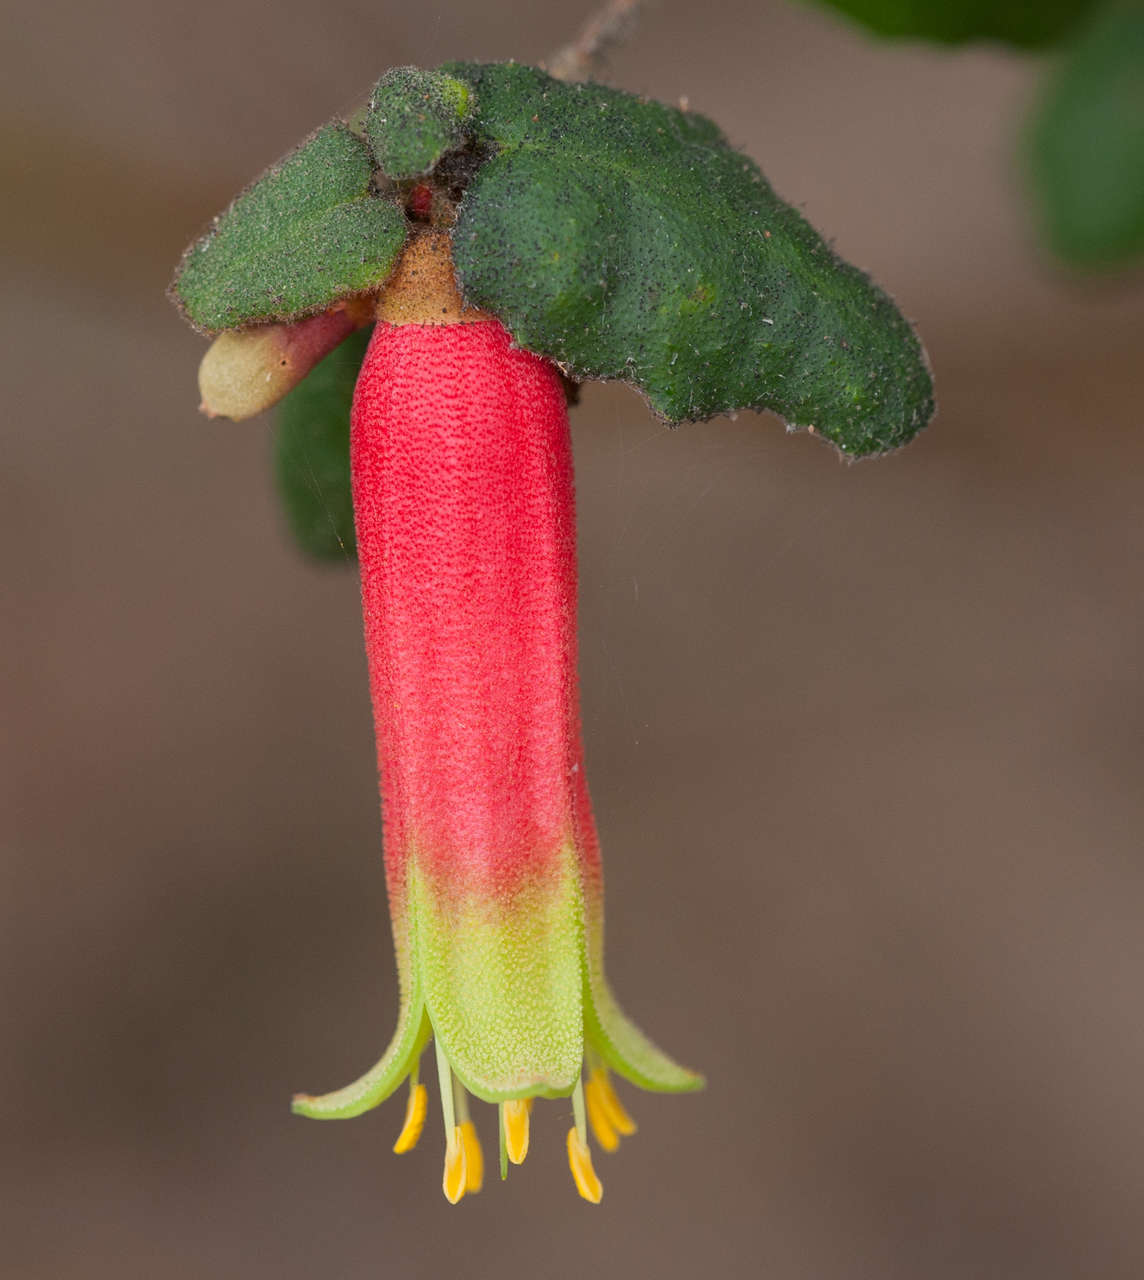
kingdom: Plantae
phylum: Tracheophyta
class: Magnoliopsida
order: Sapindales
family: Rutaceae
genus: Correa
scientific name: Correa reflexa
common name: Common correa
